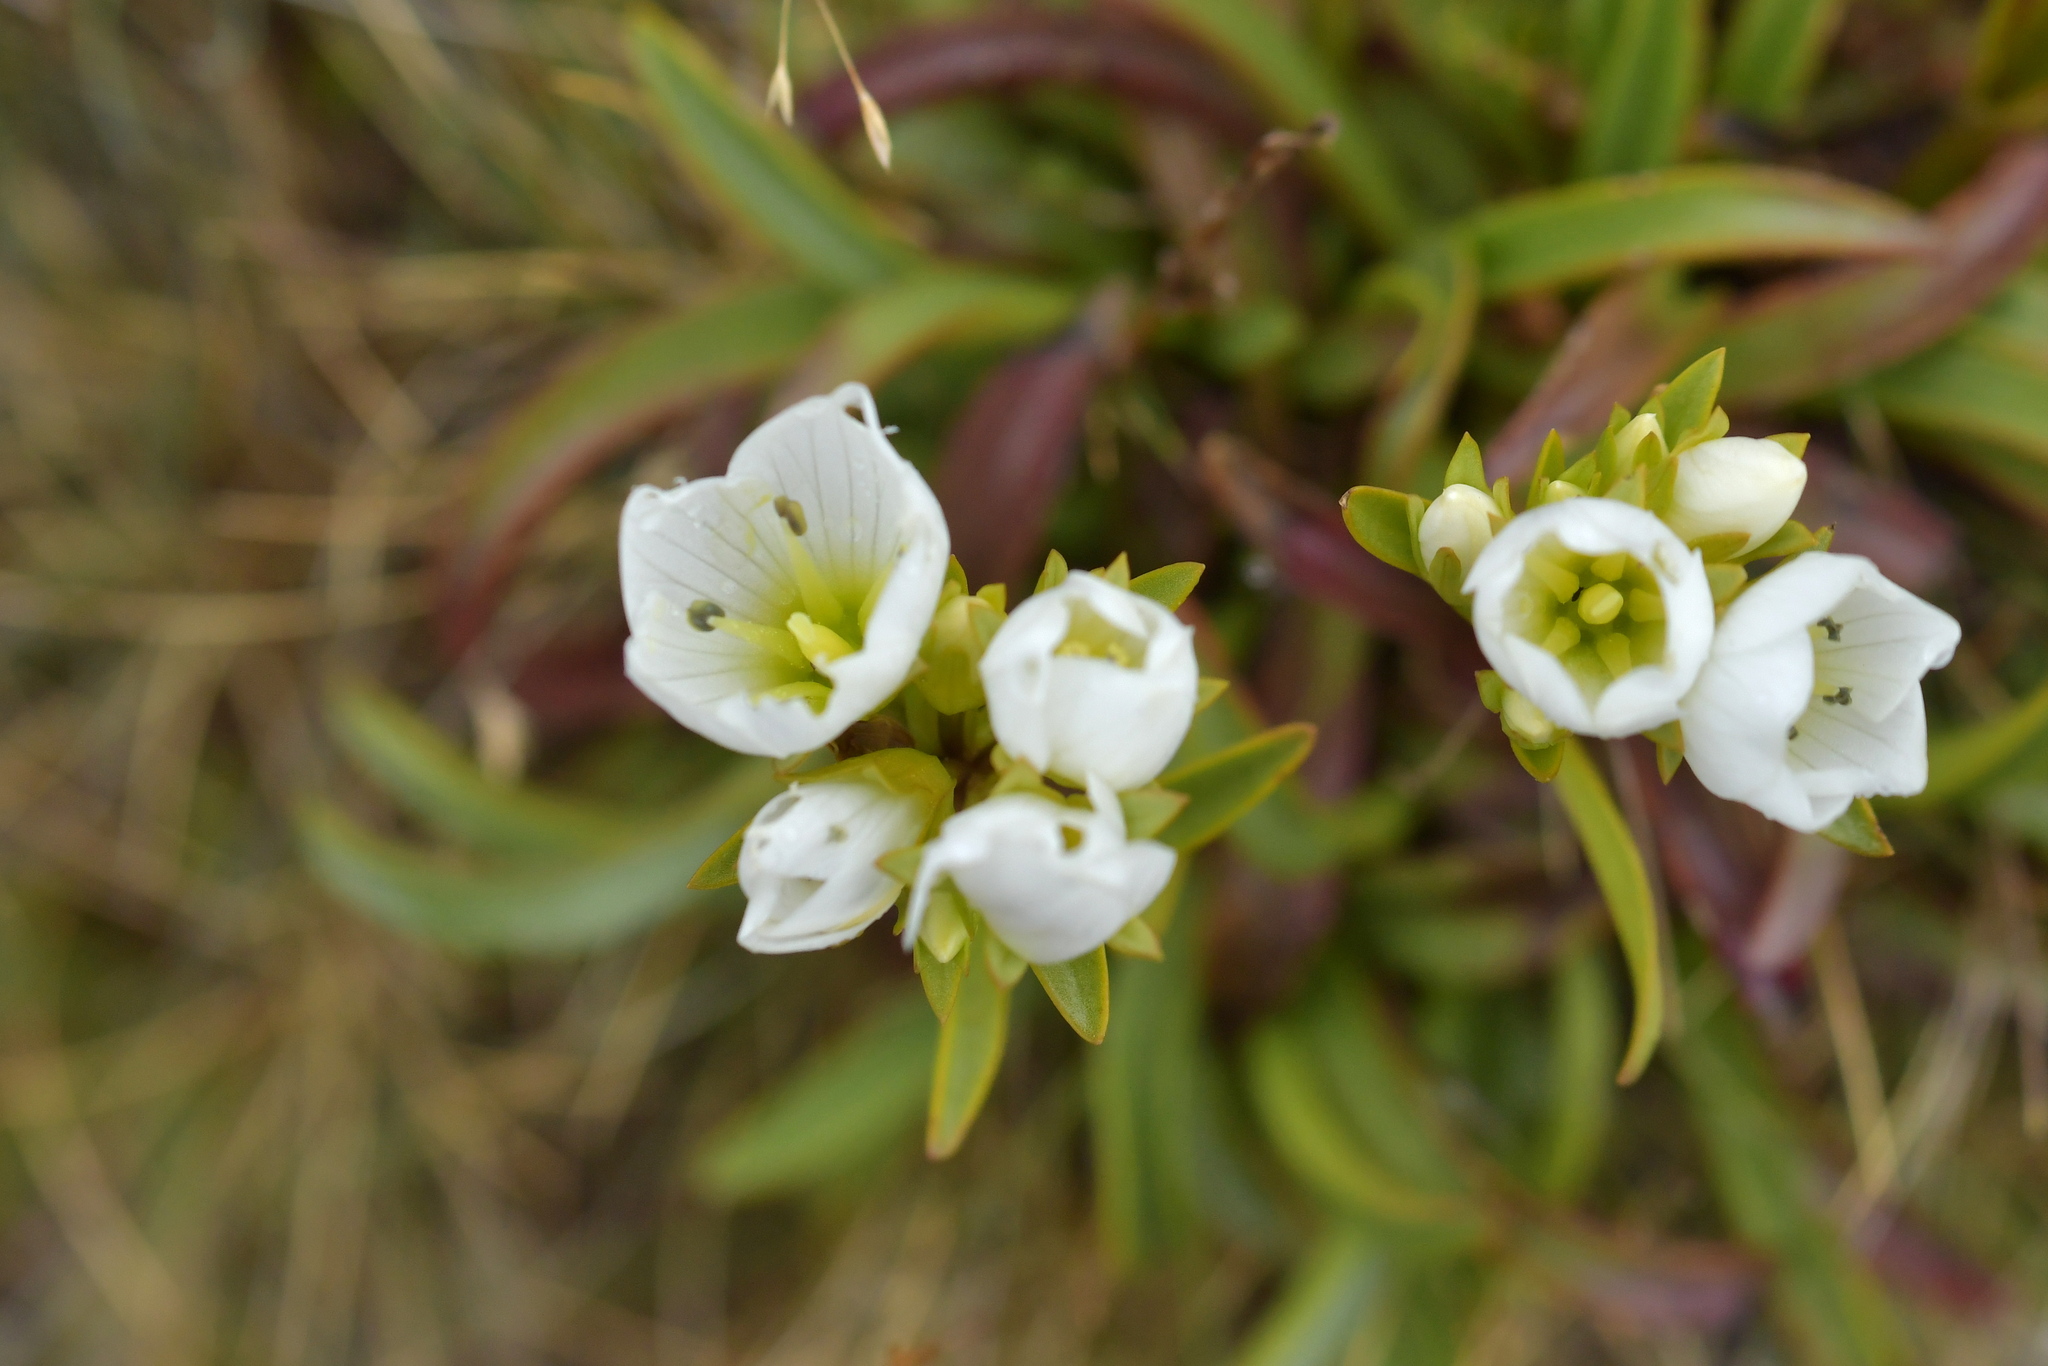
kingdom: Plantae
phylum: Tracheophyta
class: Magnoliopsida
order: Gentianales
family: Gentianaceae
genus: Gentianella
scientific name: Gentianella bellidifolia
